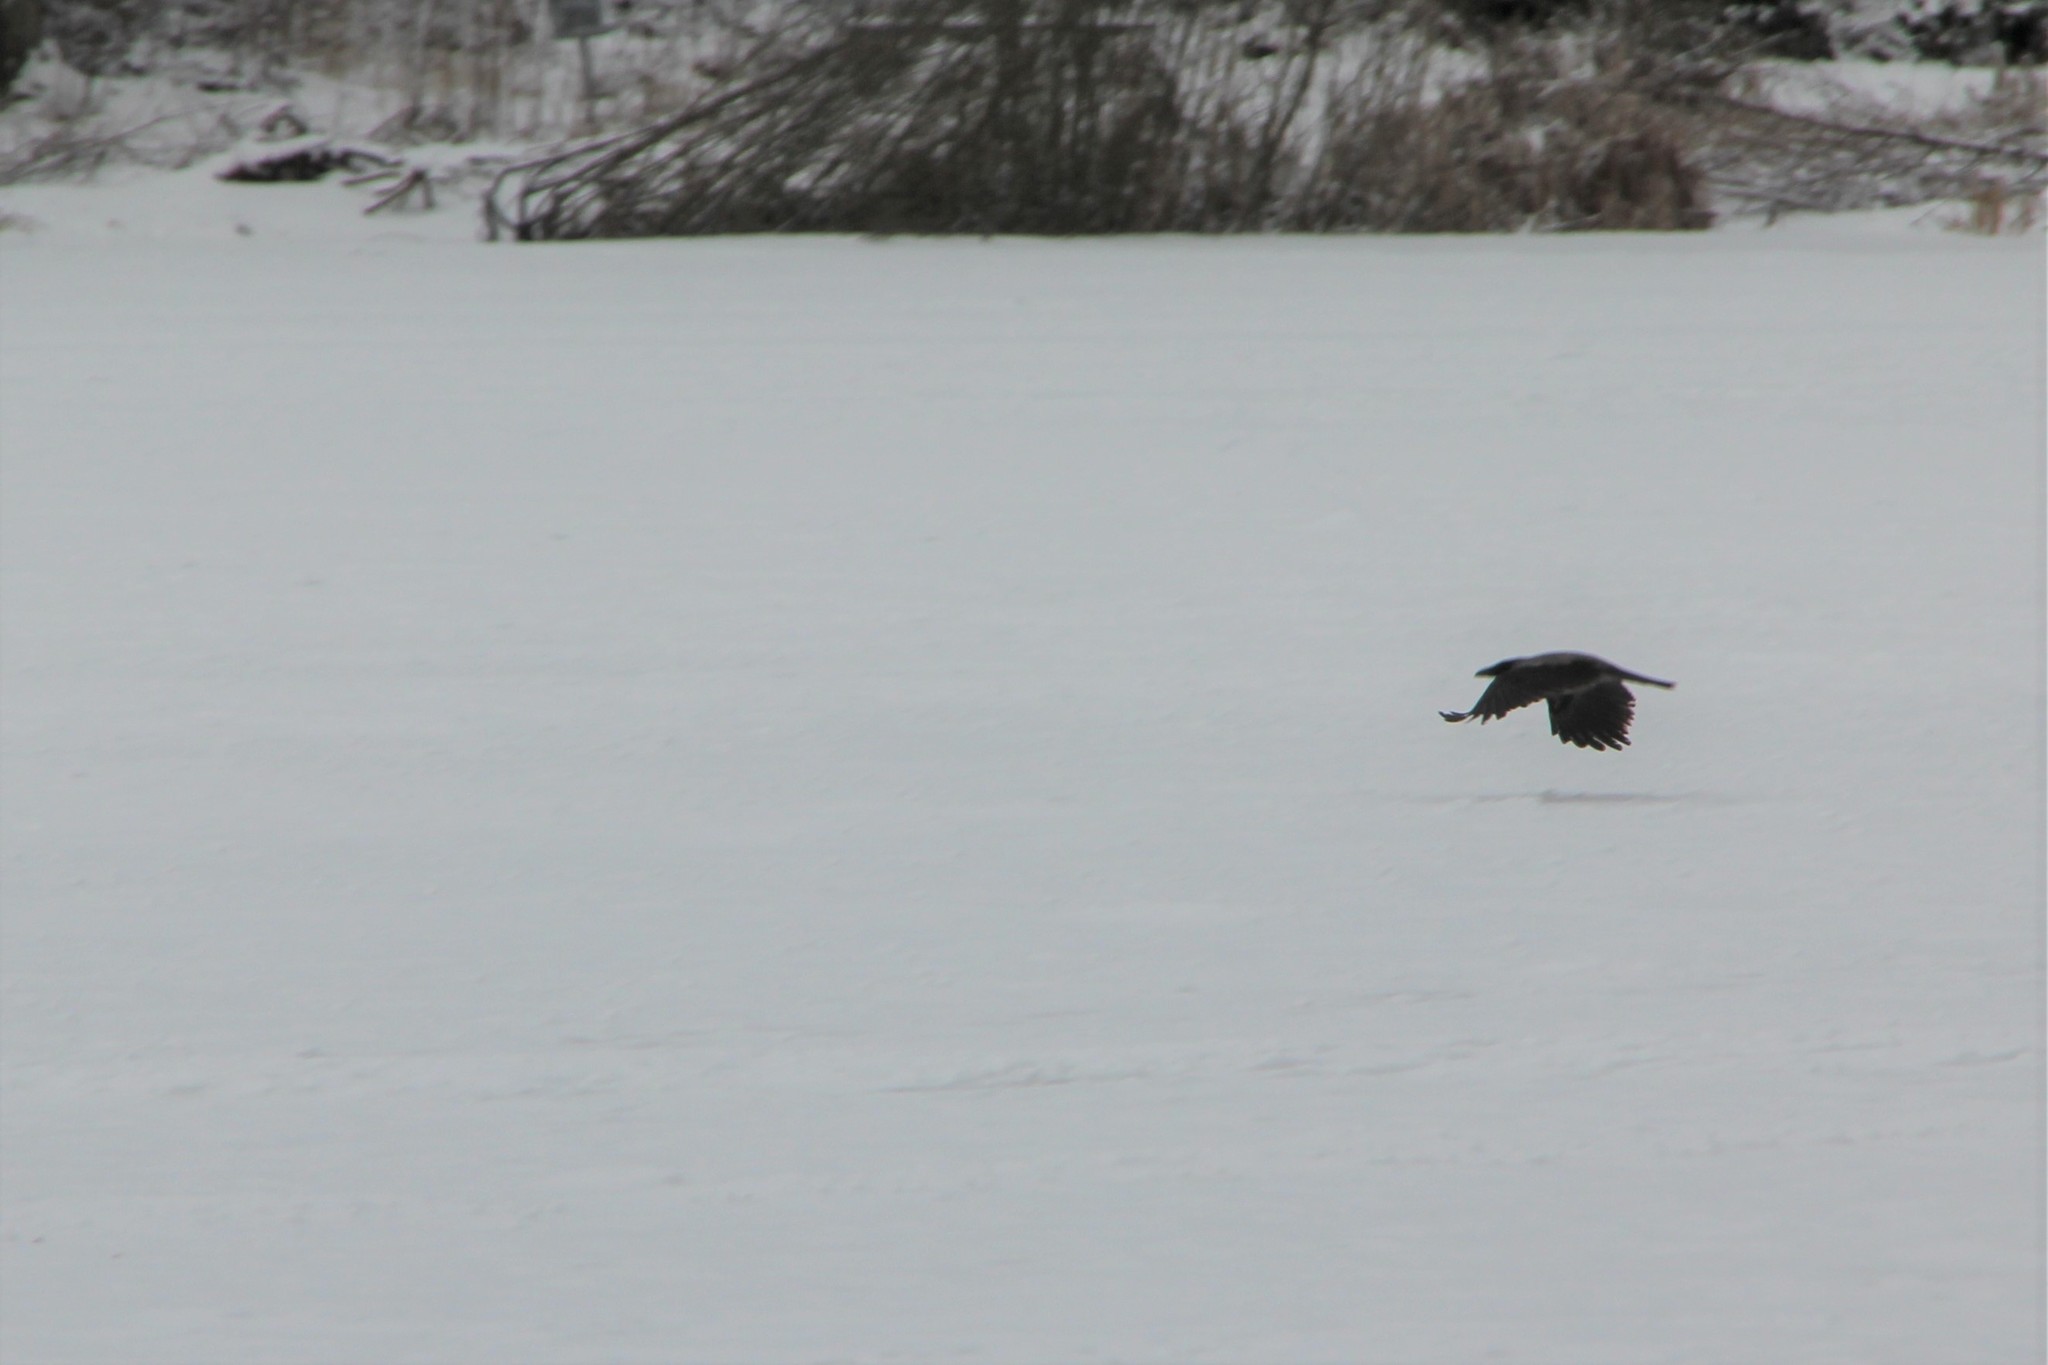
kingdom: Animalia
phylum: Chordata
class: Aves
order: Passeriformes
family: Corvidae
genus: Corvus
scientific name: Corvus cornix
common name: Hooded crow
